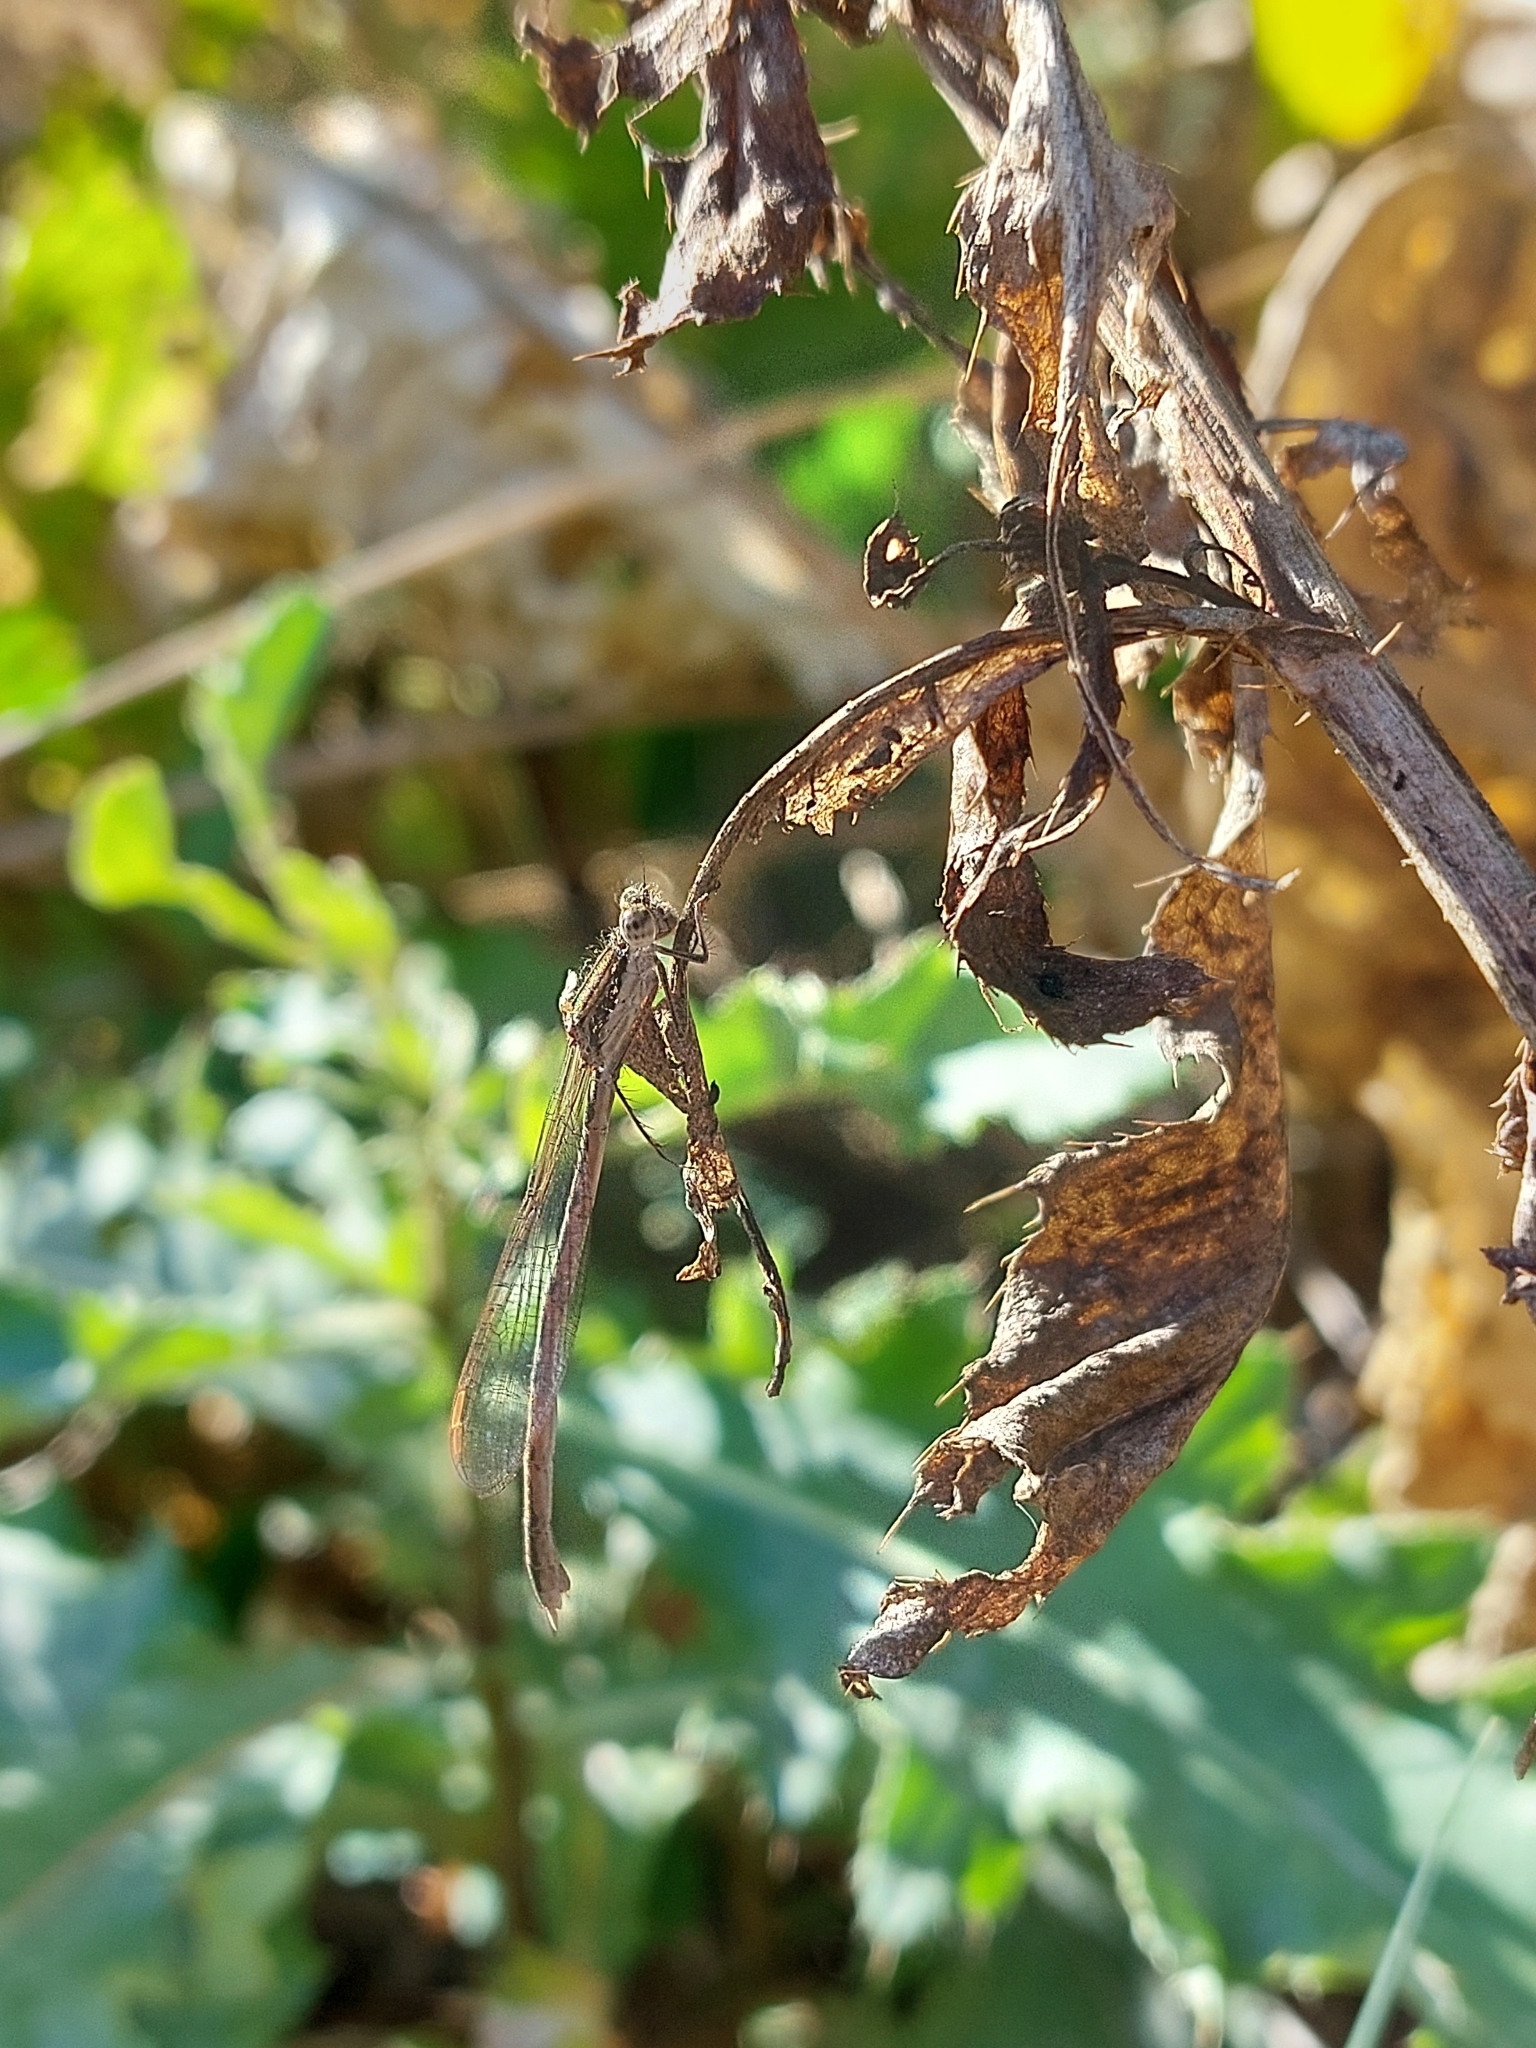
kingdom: Animalia
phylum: Arthropoda
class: Insecta
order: Odonata
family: Lestidae
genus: Sympecma
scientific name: Sympecma fusca
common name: Common winter damsel
